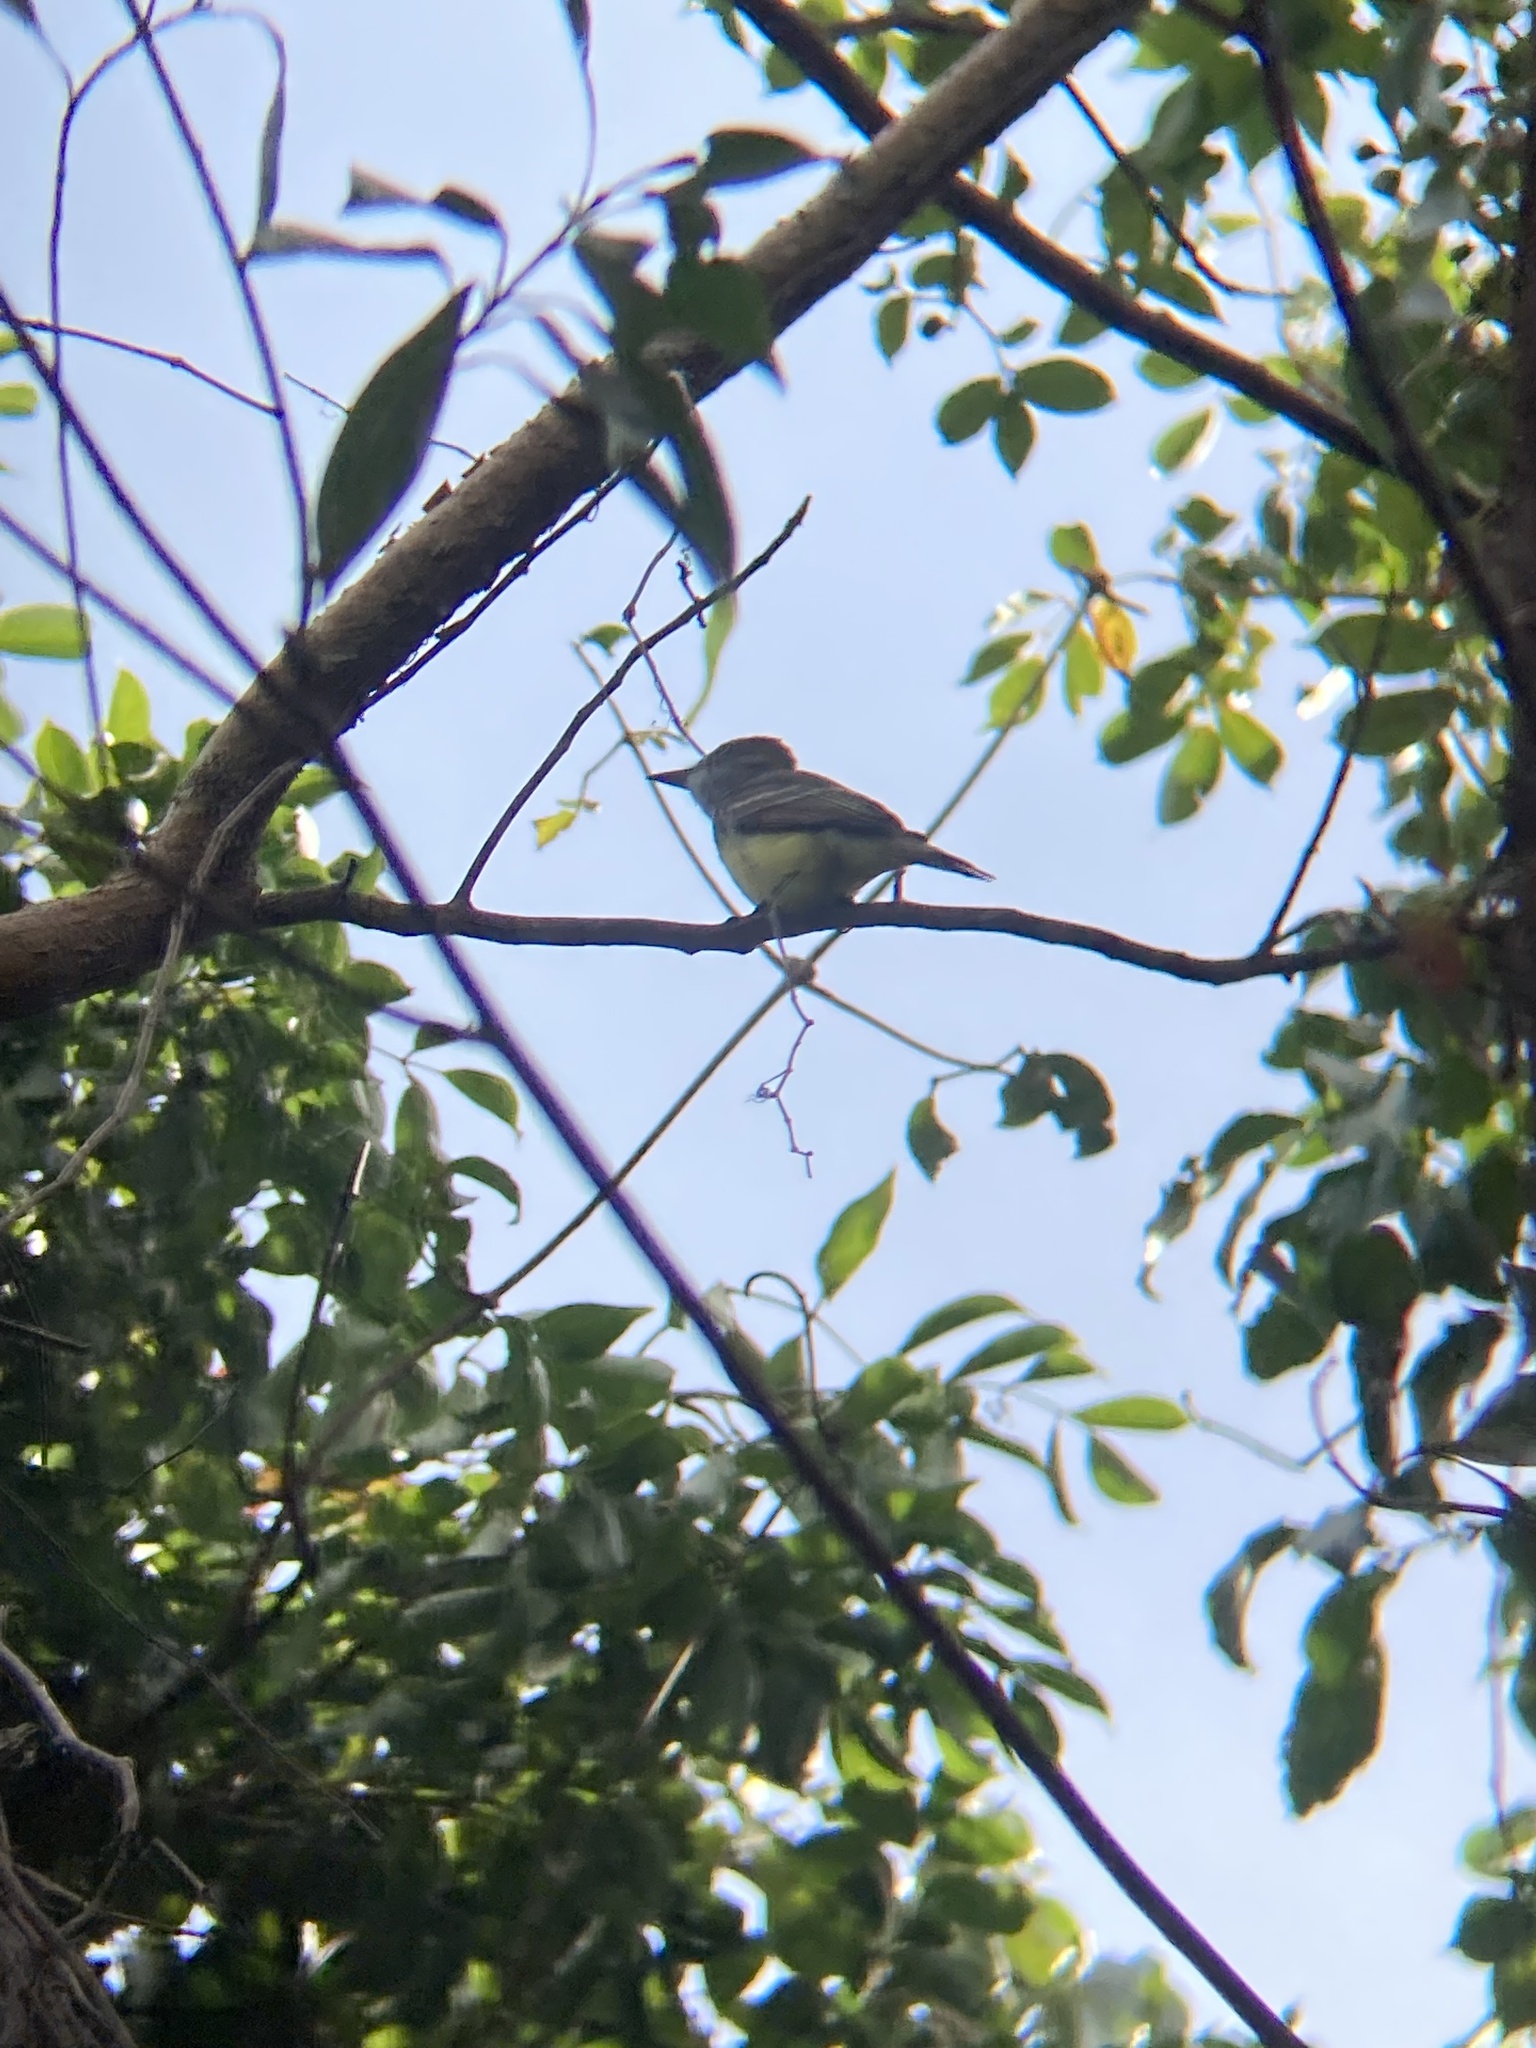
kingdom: Animalia
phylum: Chordata
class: Aves
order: Passeriformes
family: Tyrannidae
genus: Myiarchus
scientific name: Myiarchus crinitus
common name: Great crested flycatcher
